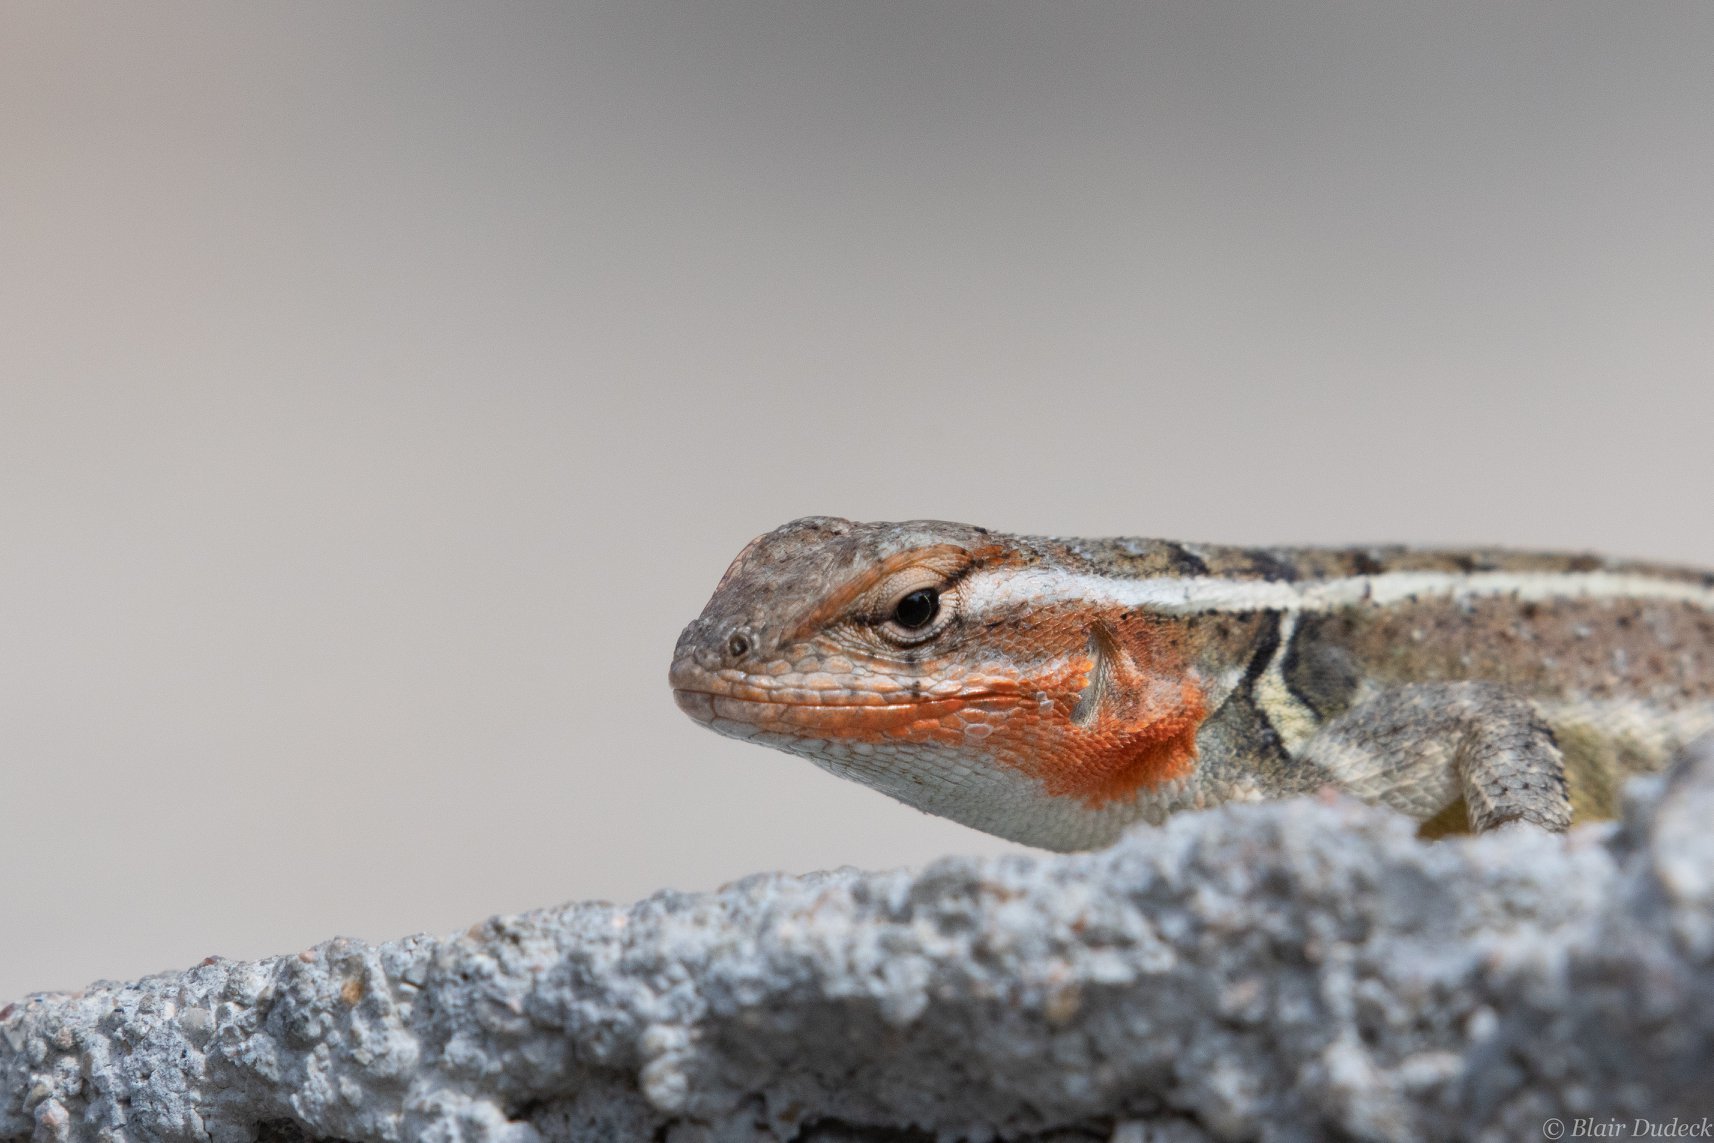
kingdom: Animalia
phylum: Chordata
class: Squamata
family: Phrynosomatidae
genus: Sceloporus
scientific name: Sceloporus variabilis
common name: Rosebelly lizard
